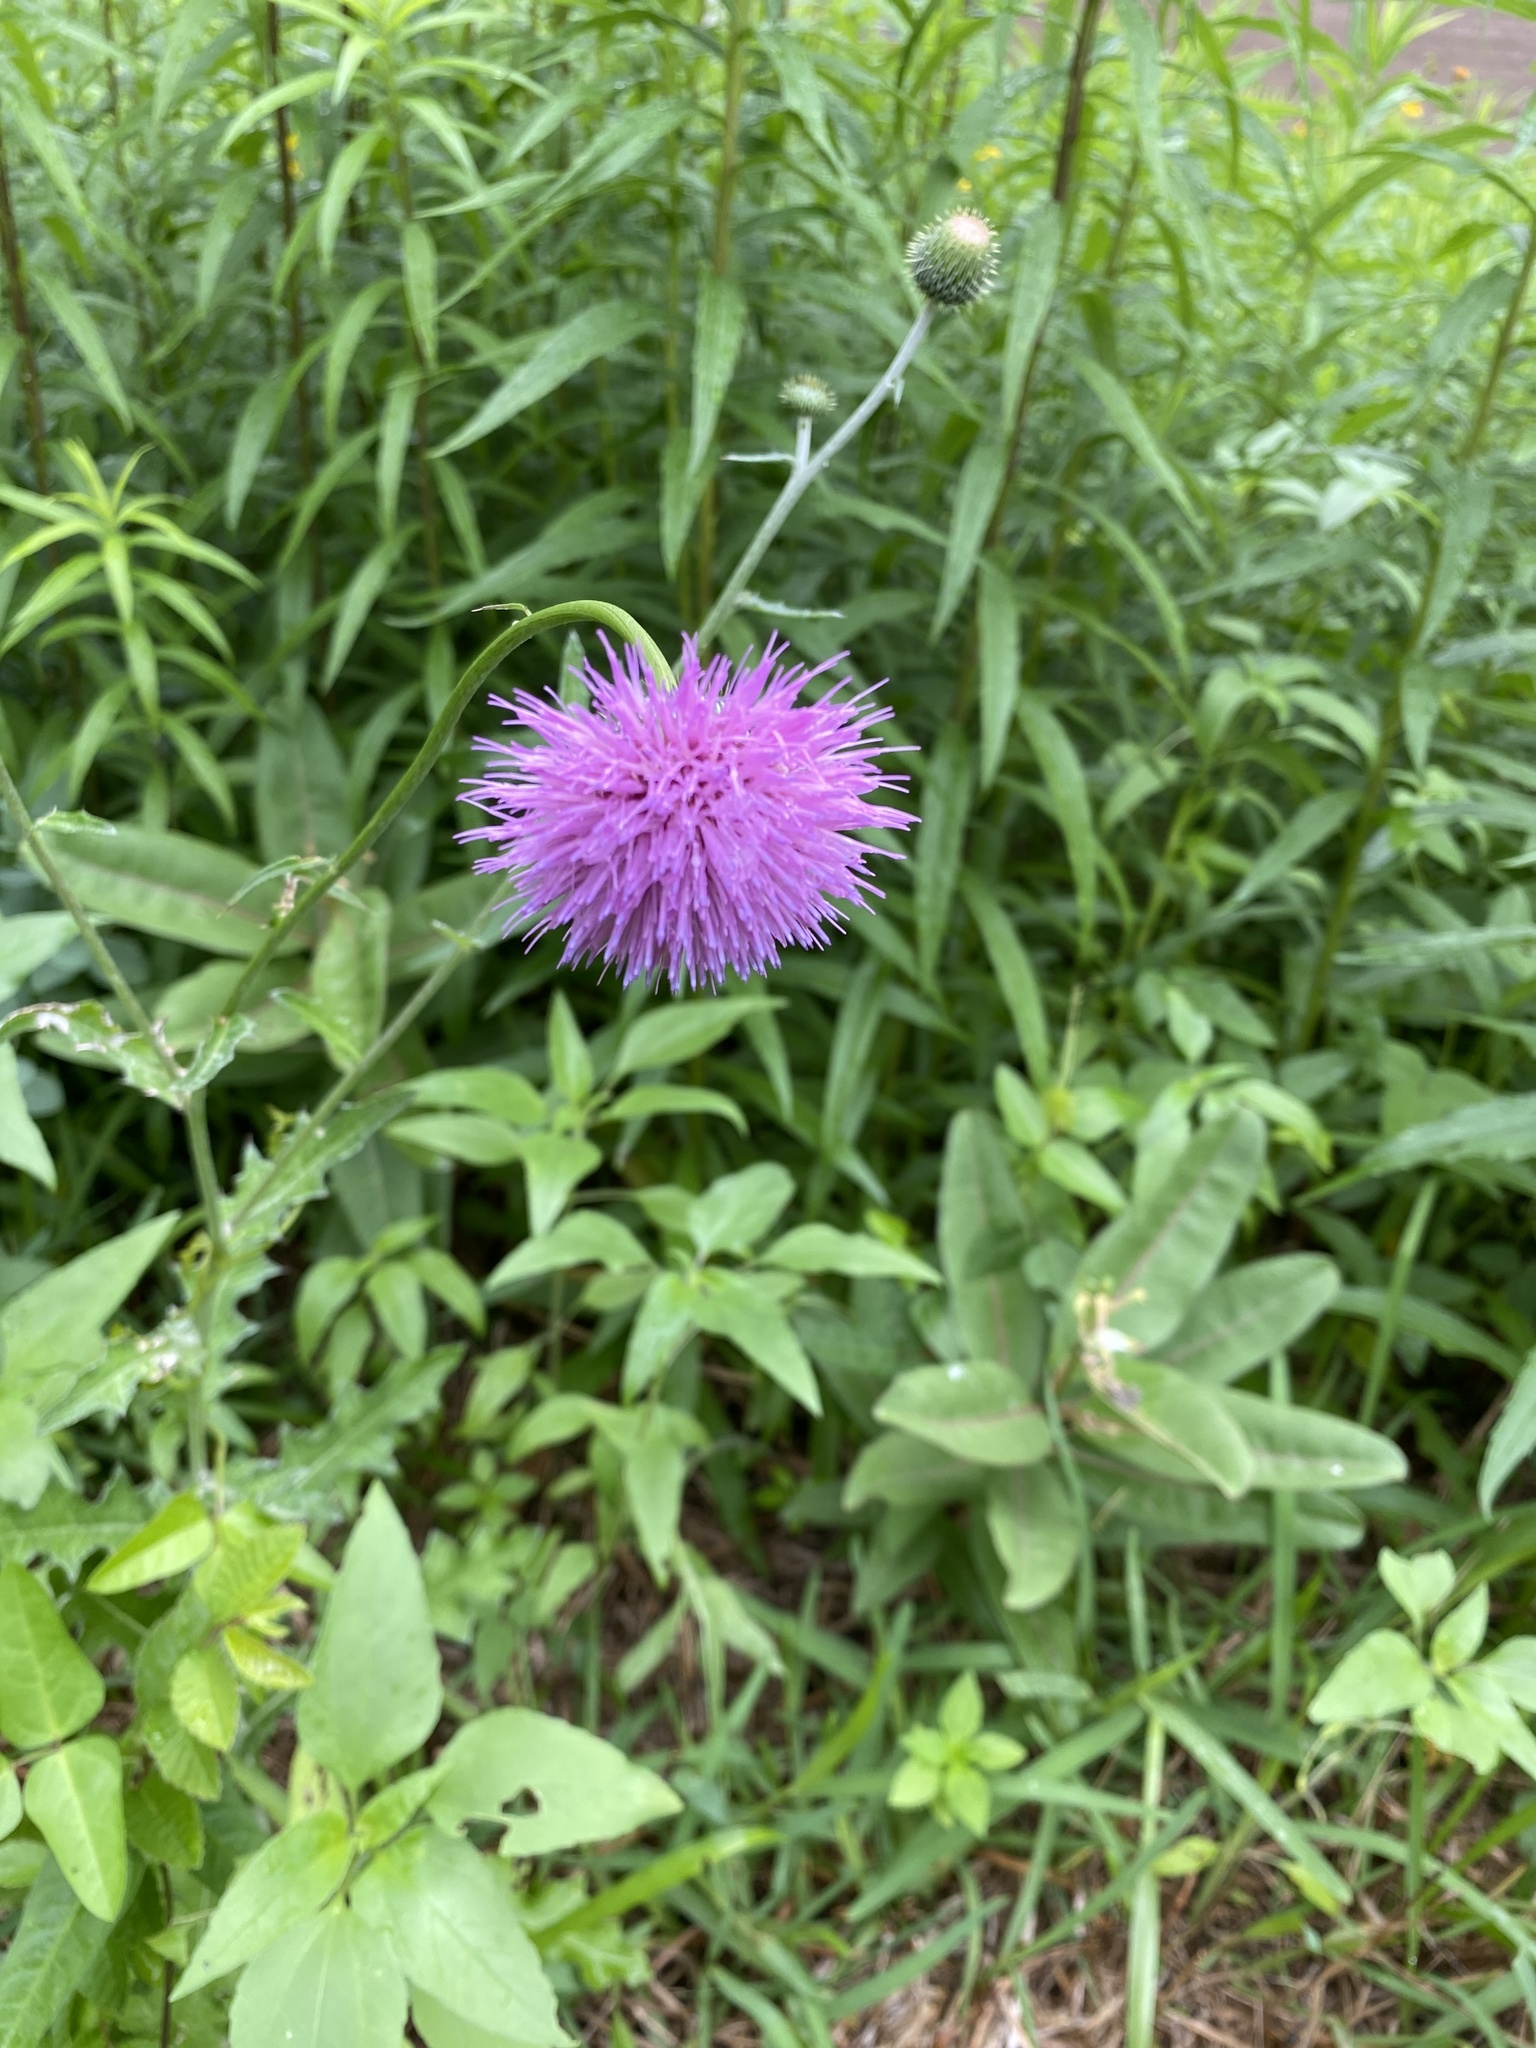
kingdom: Plantae
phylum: Tracheophyta
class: Magnoliopsida
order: Asterales
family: Asteraceae
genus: Cirsium
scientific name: Cirsium texanum
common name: Texas purple thistle
